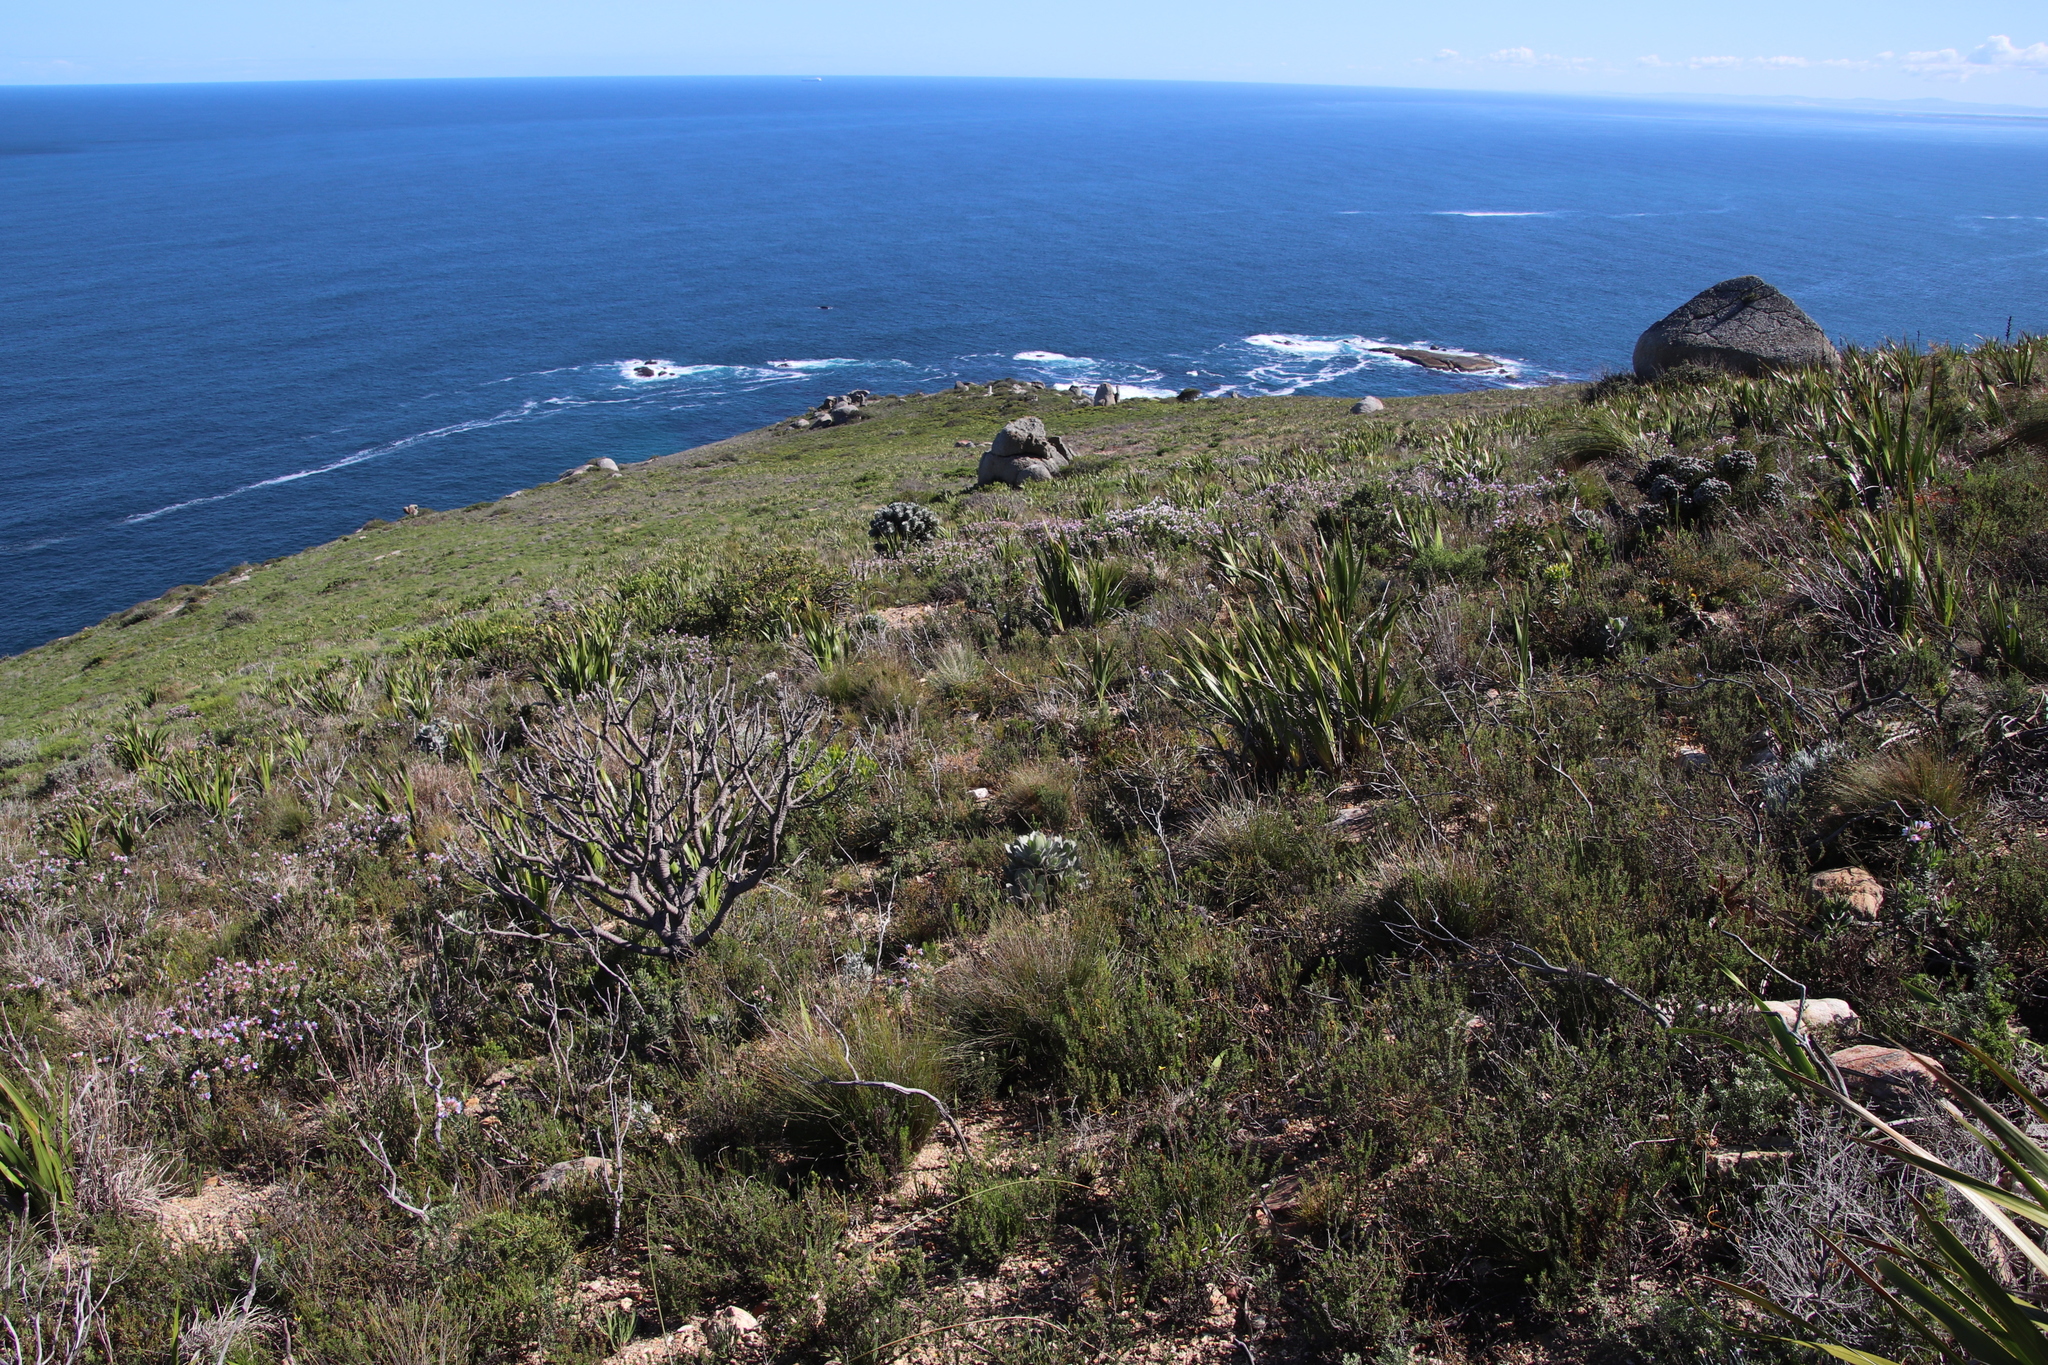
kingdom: Plantae
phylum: Tracheophyta
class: Magnoliopsida
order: Proteales
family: Proteaceae
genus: Leucospermum
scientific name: Leucospermum conocarpodendron
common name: Tree pincushion
